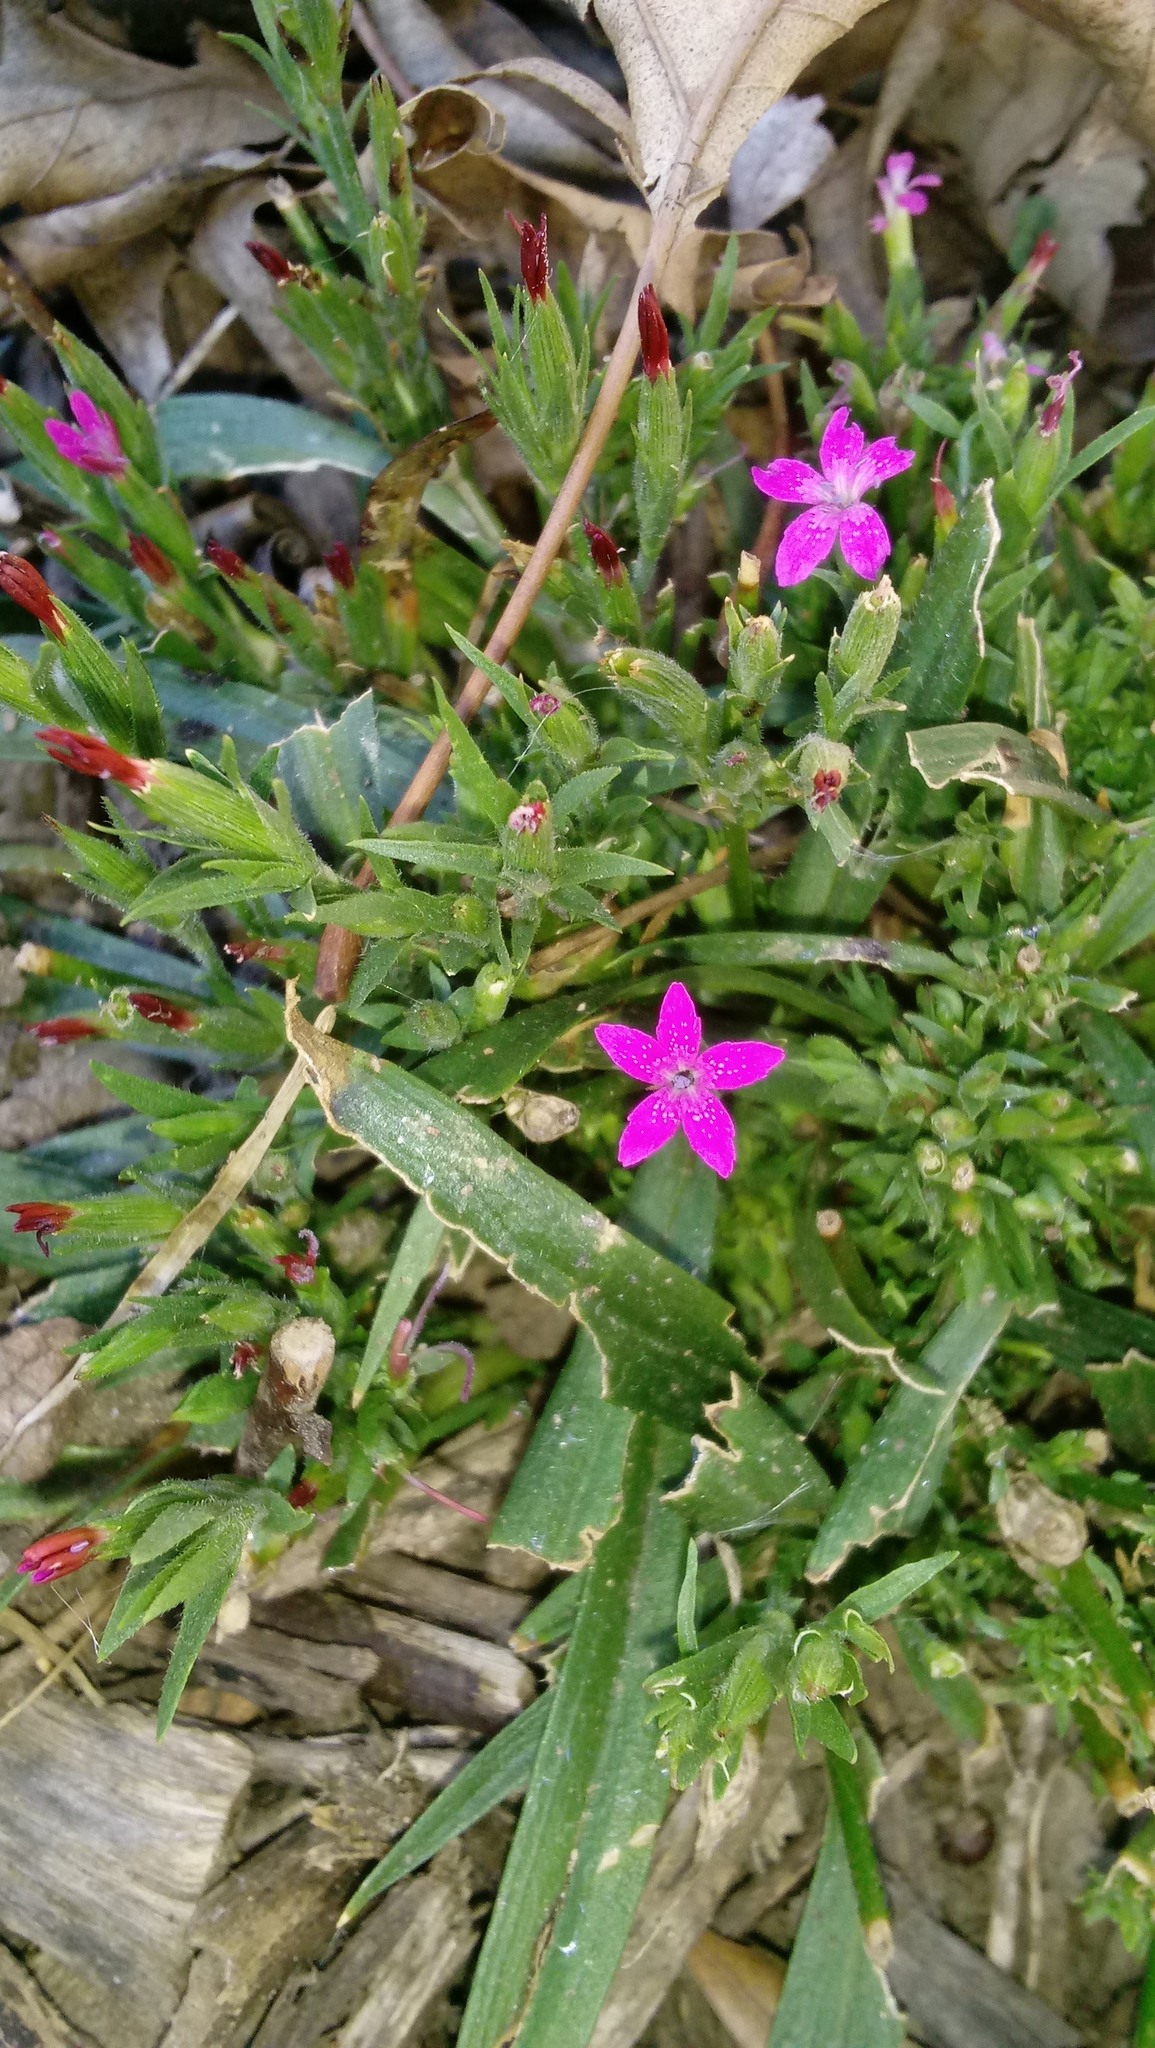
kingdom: Plantae
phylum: Tracheophyta
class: Magnoliopsida
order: Caryophyllales
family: Caryophyllaceae
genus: Dianthus
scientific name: Dianthus armeria
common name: Deptford pink
